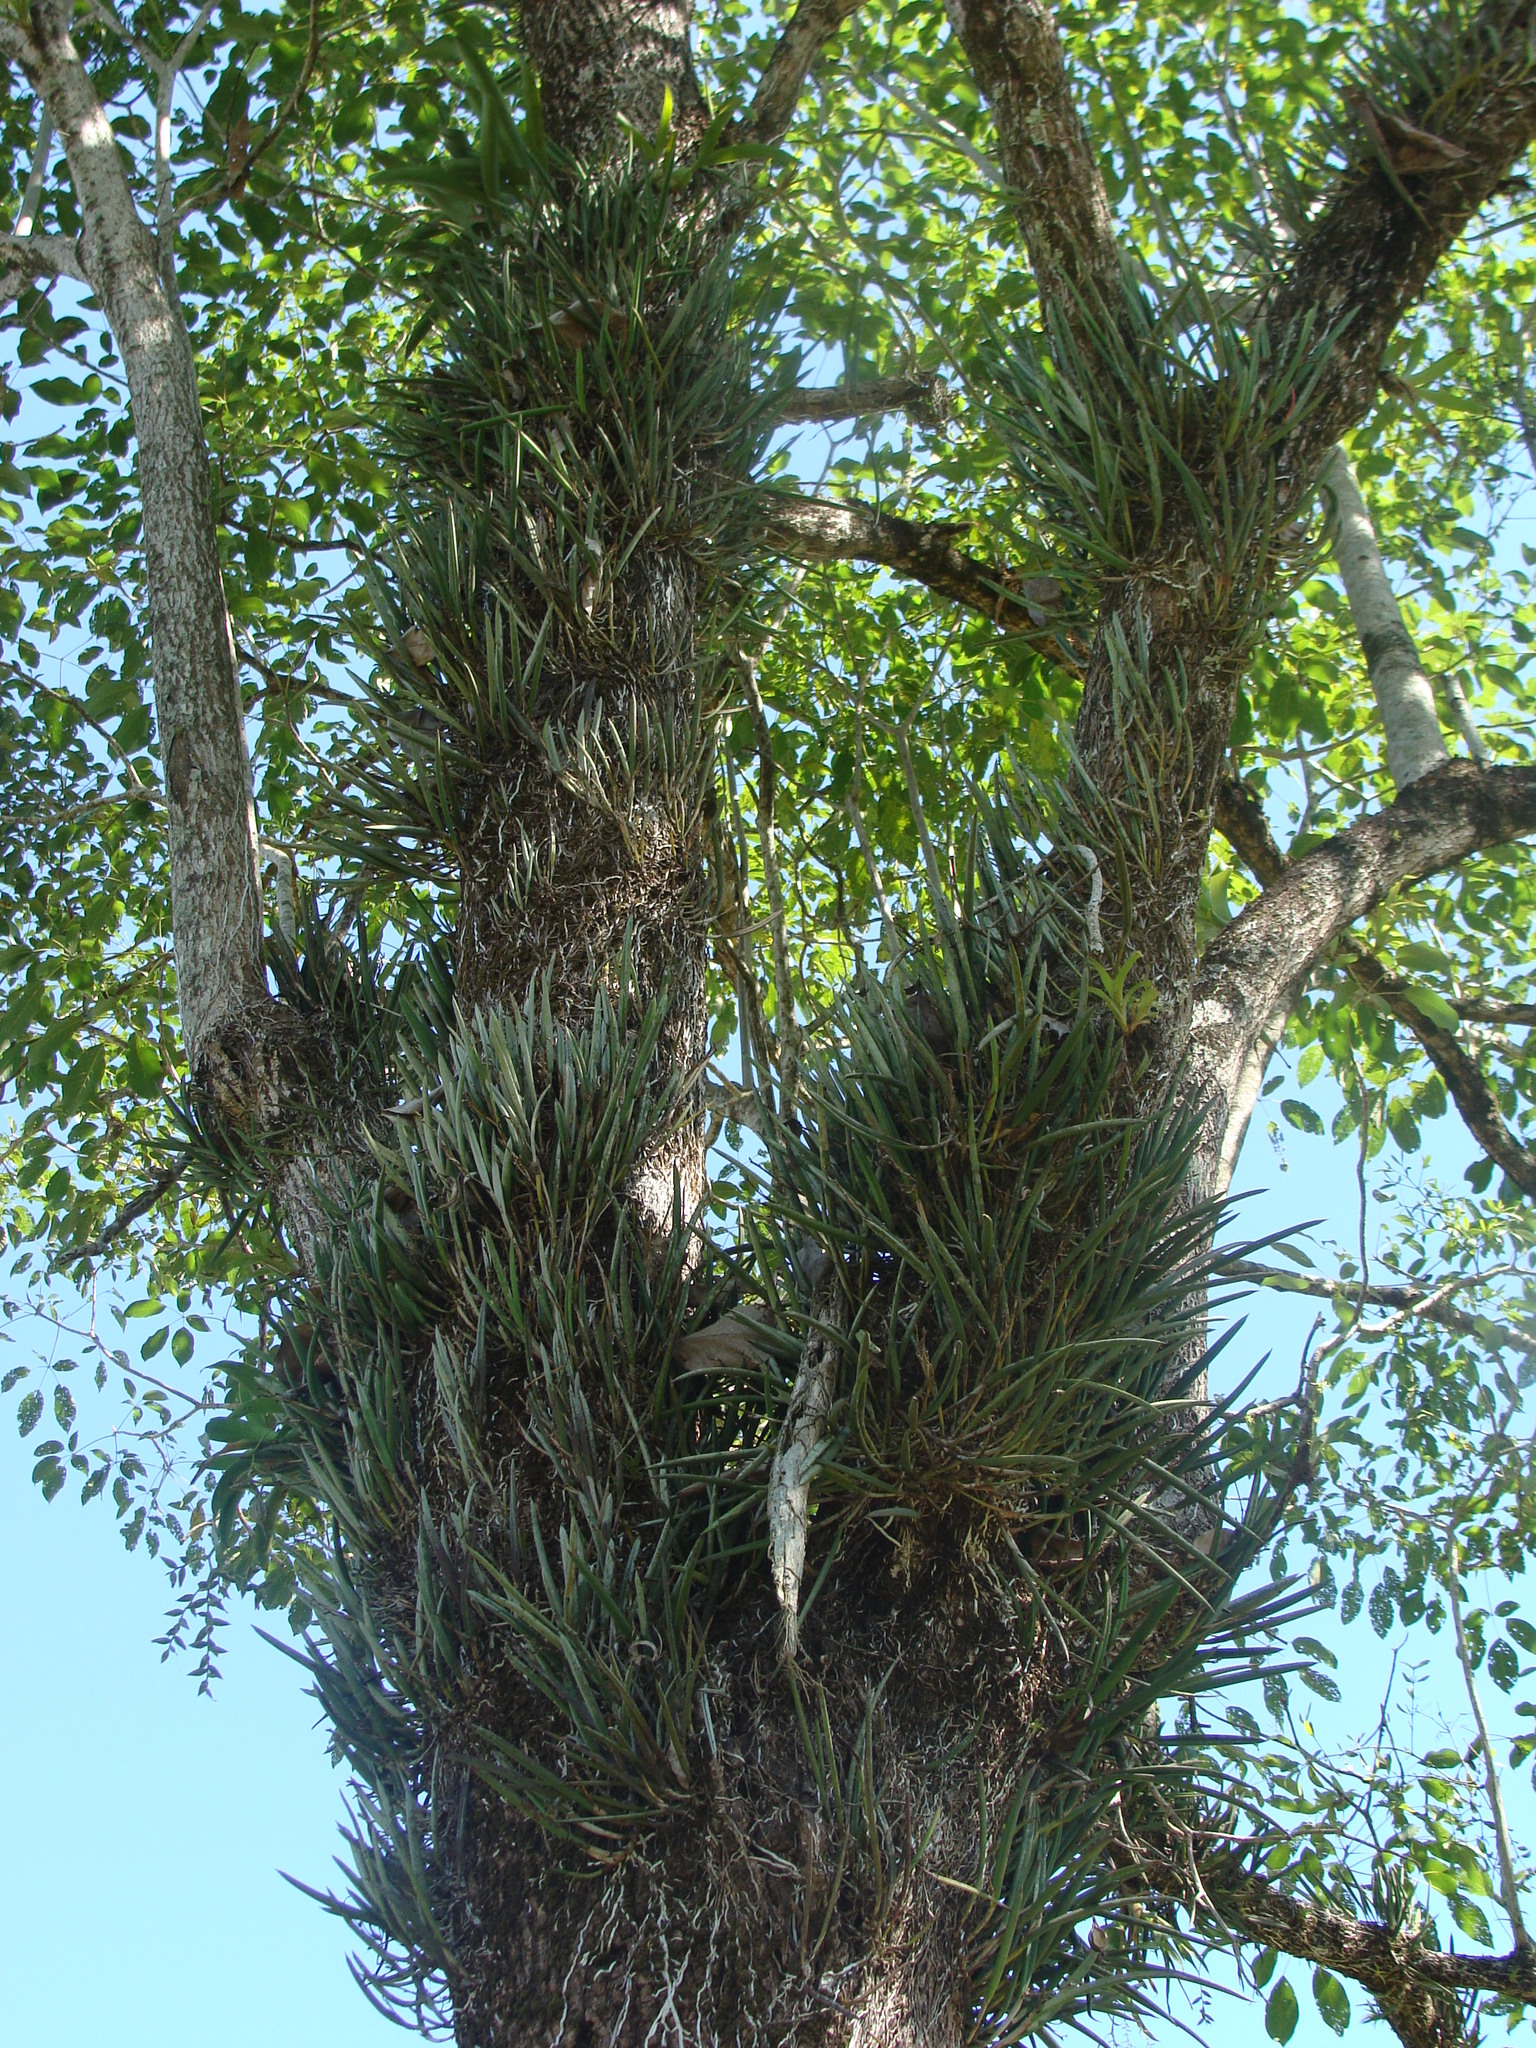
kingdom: Plantae
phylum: Tracheophyta
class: Liliopsida
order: Asparagales
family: Orchidaceae
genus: Brassavola
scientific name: Brassavola nodosa
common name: Lady of the night
